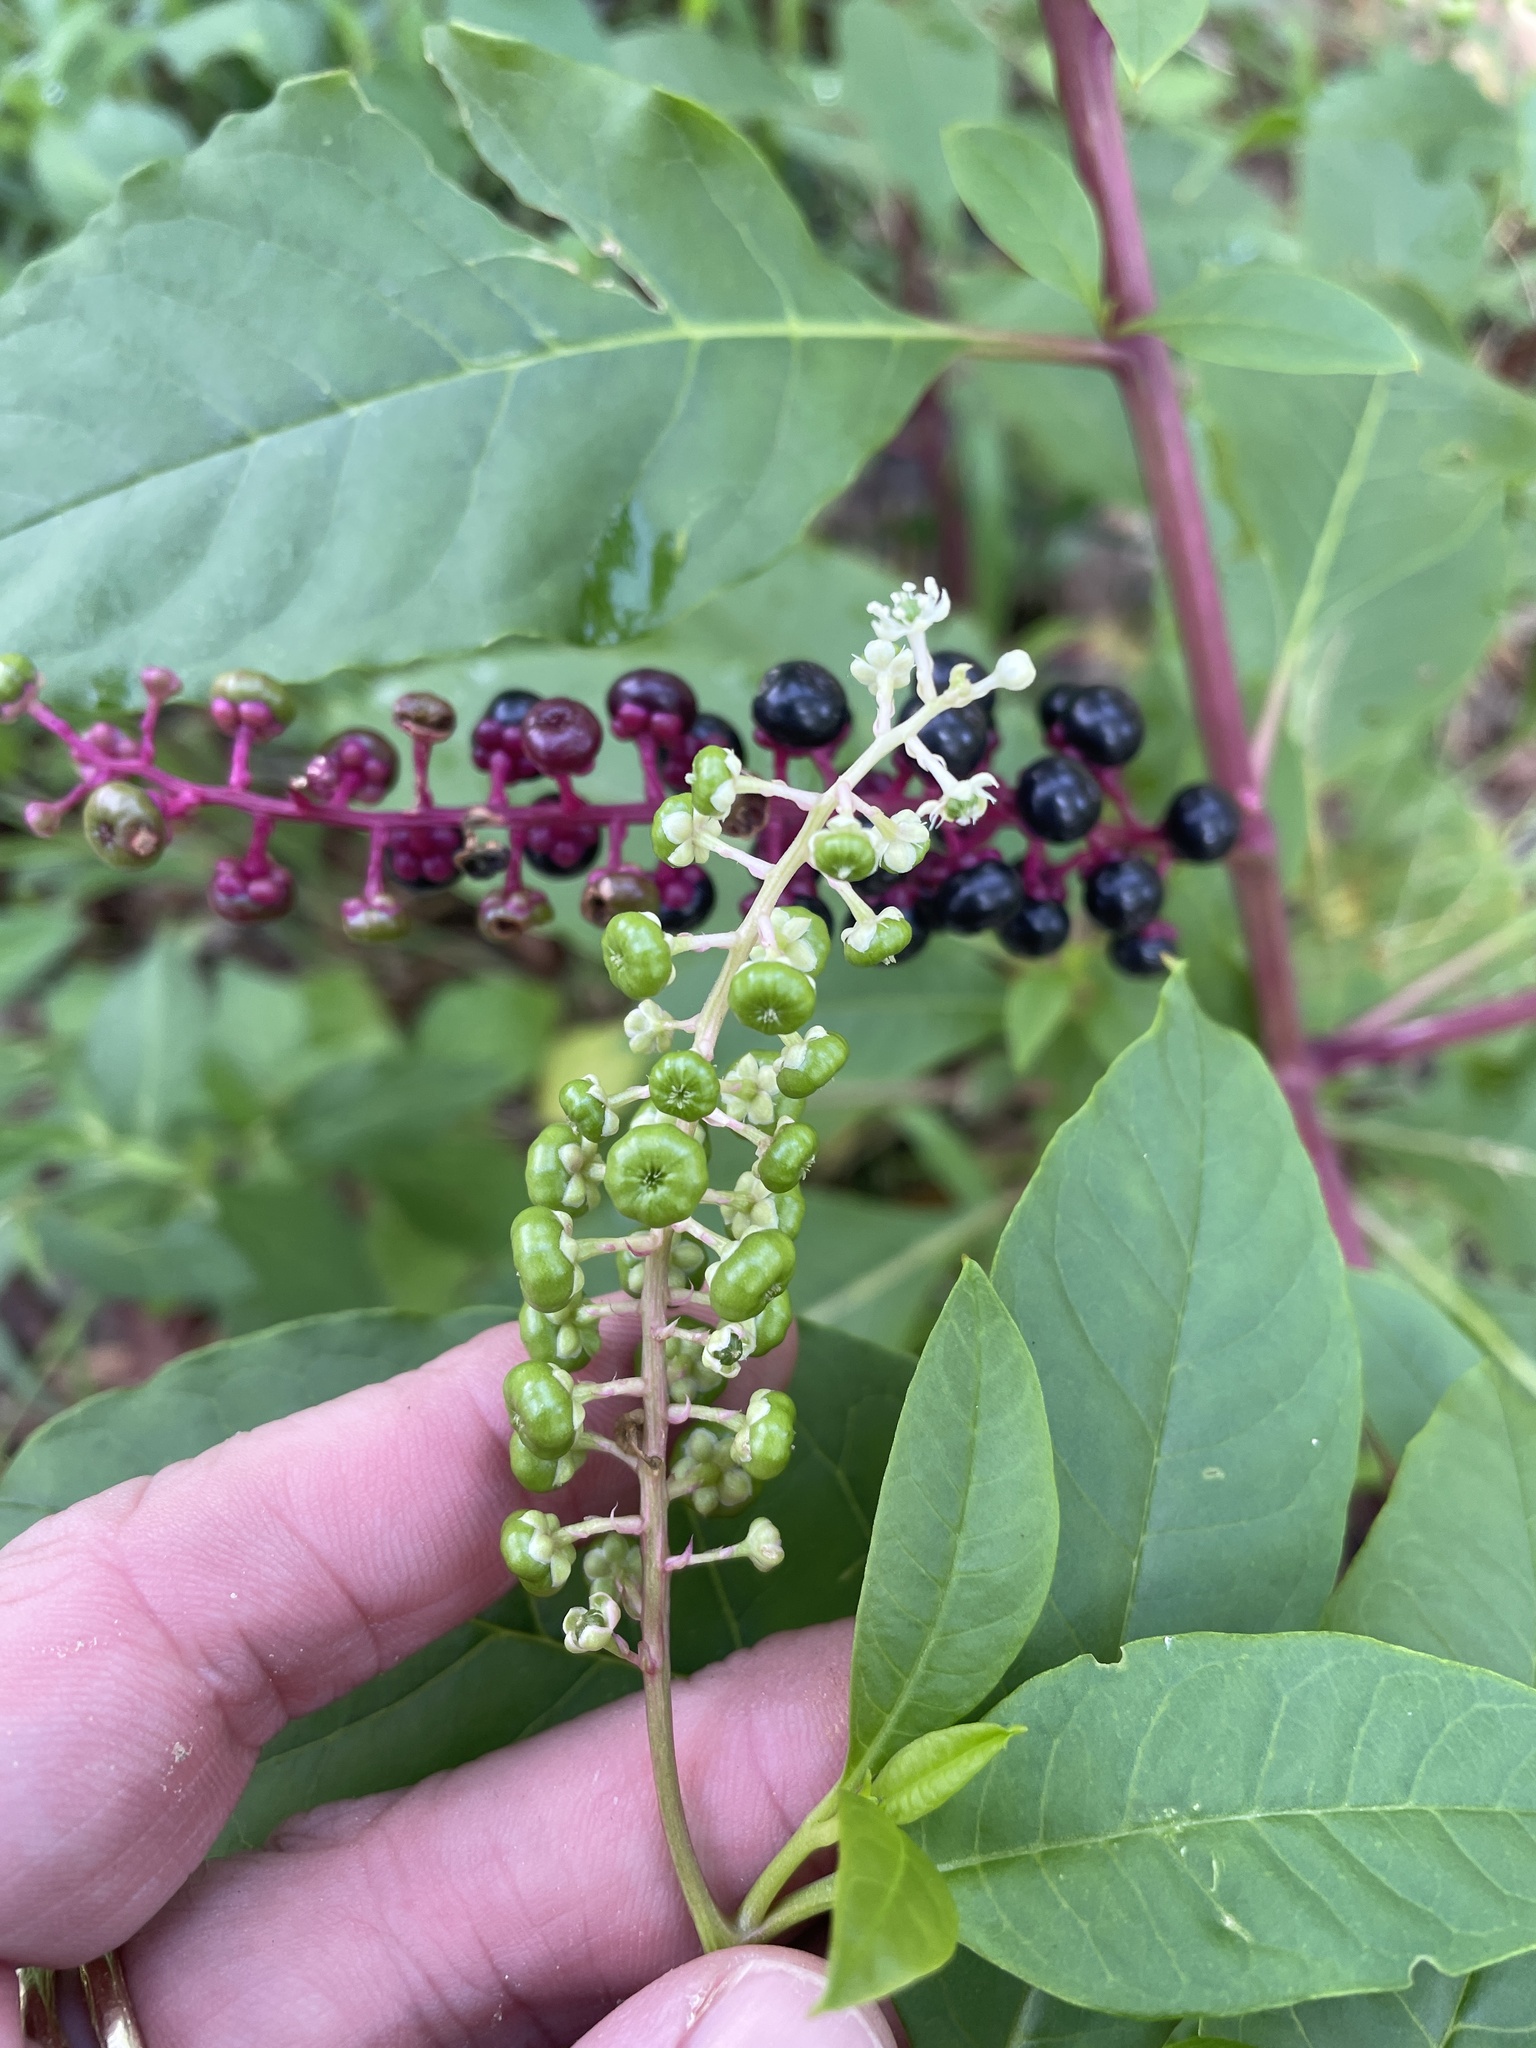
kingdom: Plantae
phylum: Tracheophyta
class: Magnoliopsida
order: Caryophyllales
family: Phytolaccaceae
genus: Phytolacca
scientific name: Phytolacca americana
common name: American pokeweed
